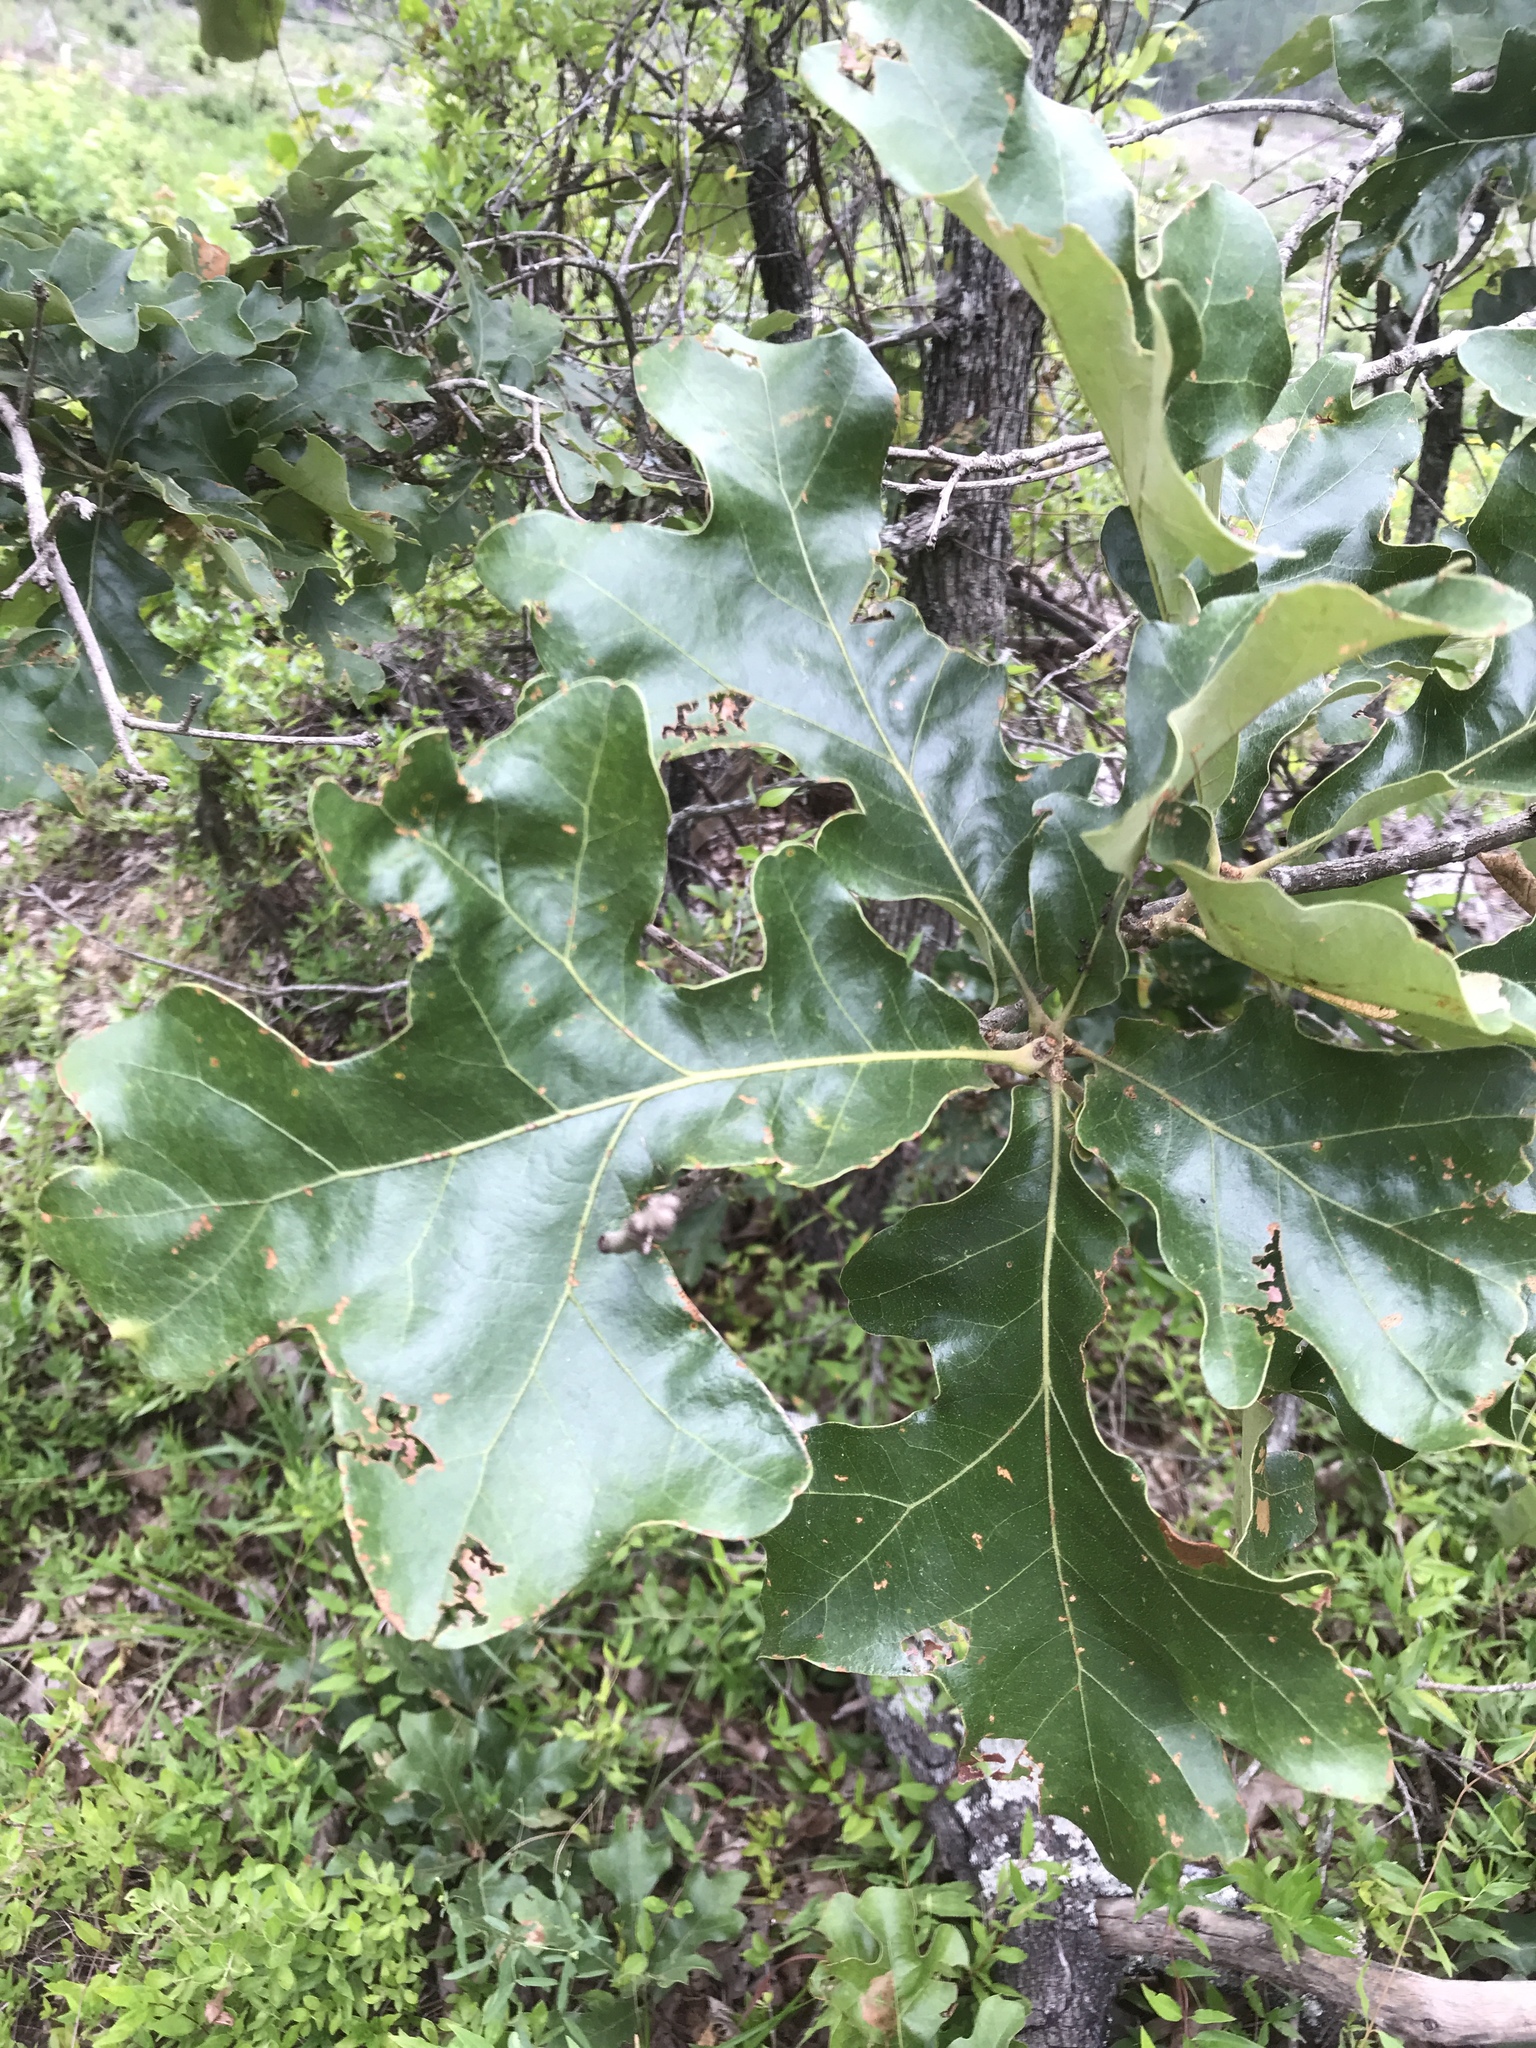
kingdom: Plantae
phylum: Tracheophyta
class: Magnoliopsida
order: Fagales
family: Fagaceae
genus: Quercus
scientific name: Quercus stellata
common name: Post oak
